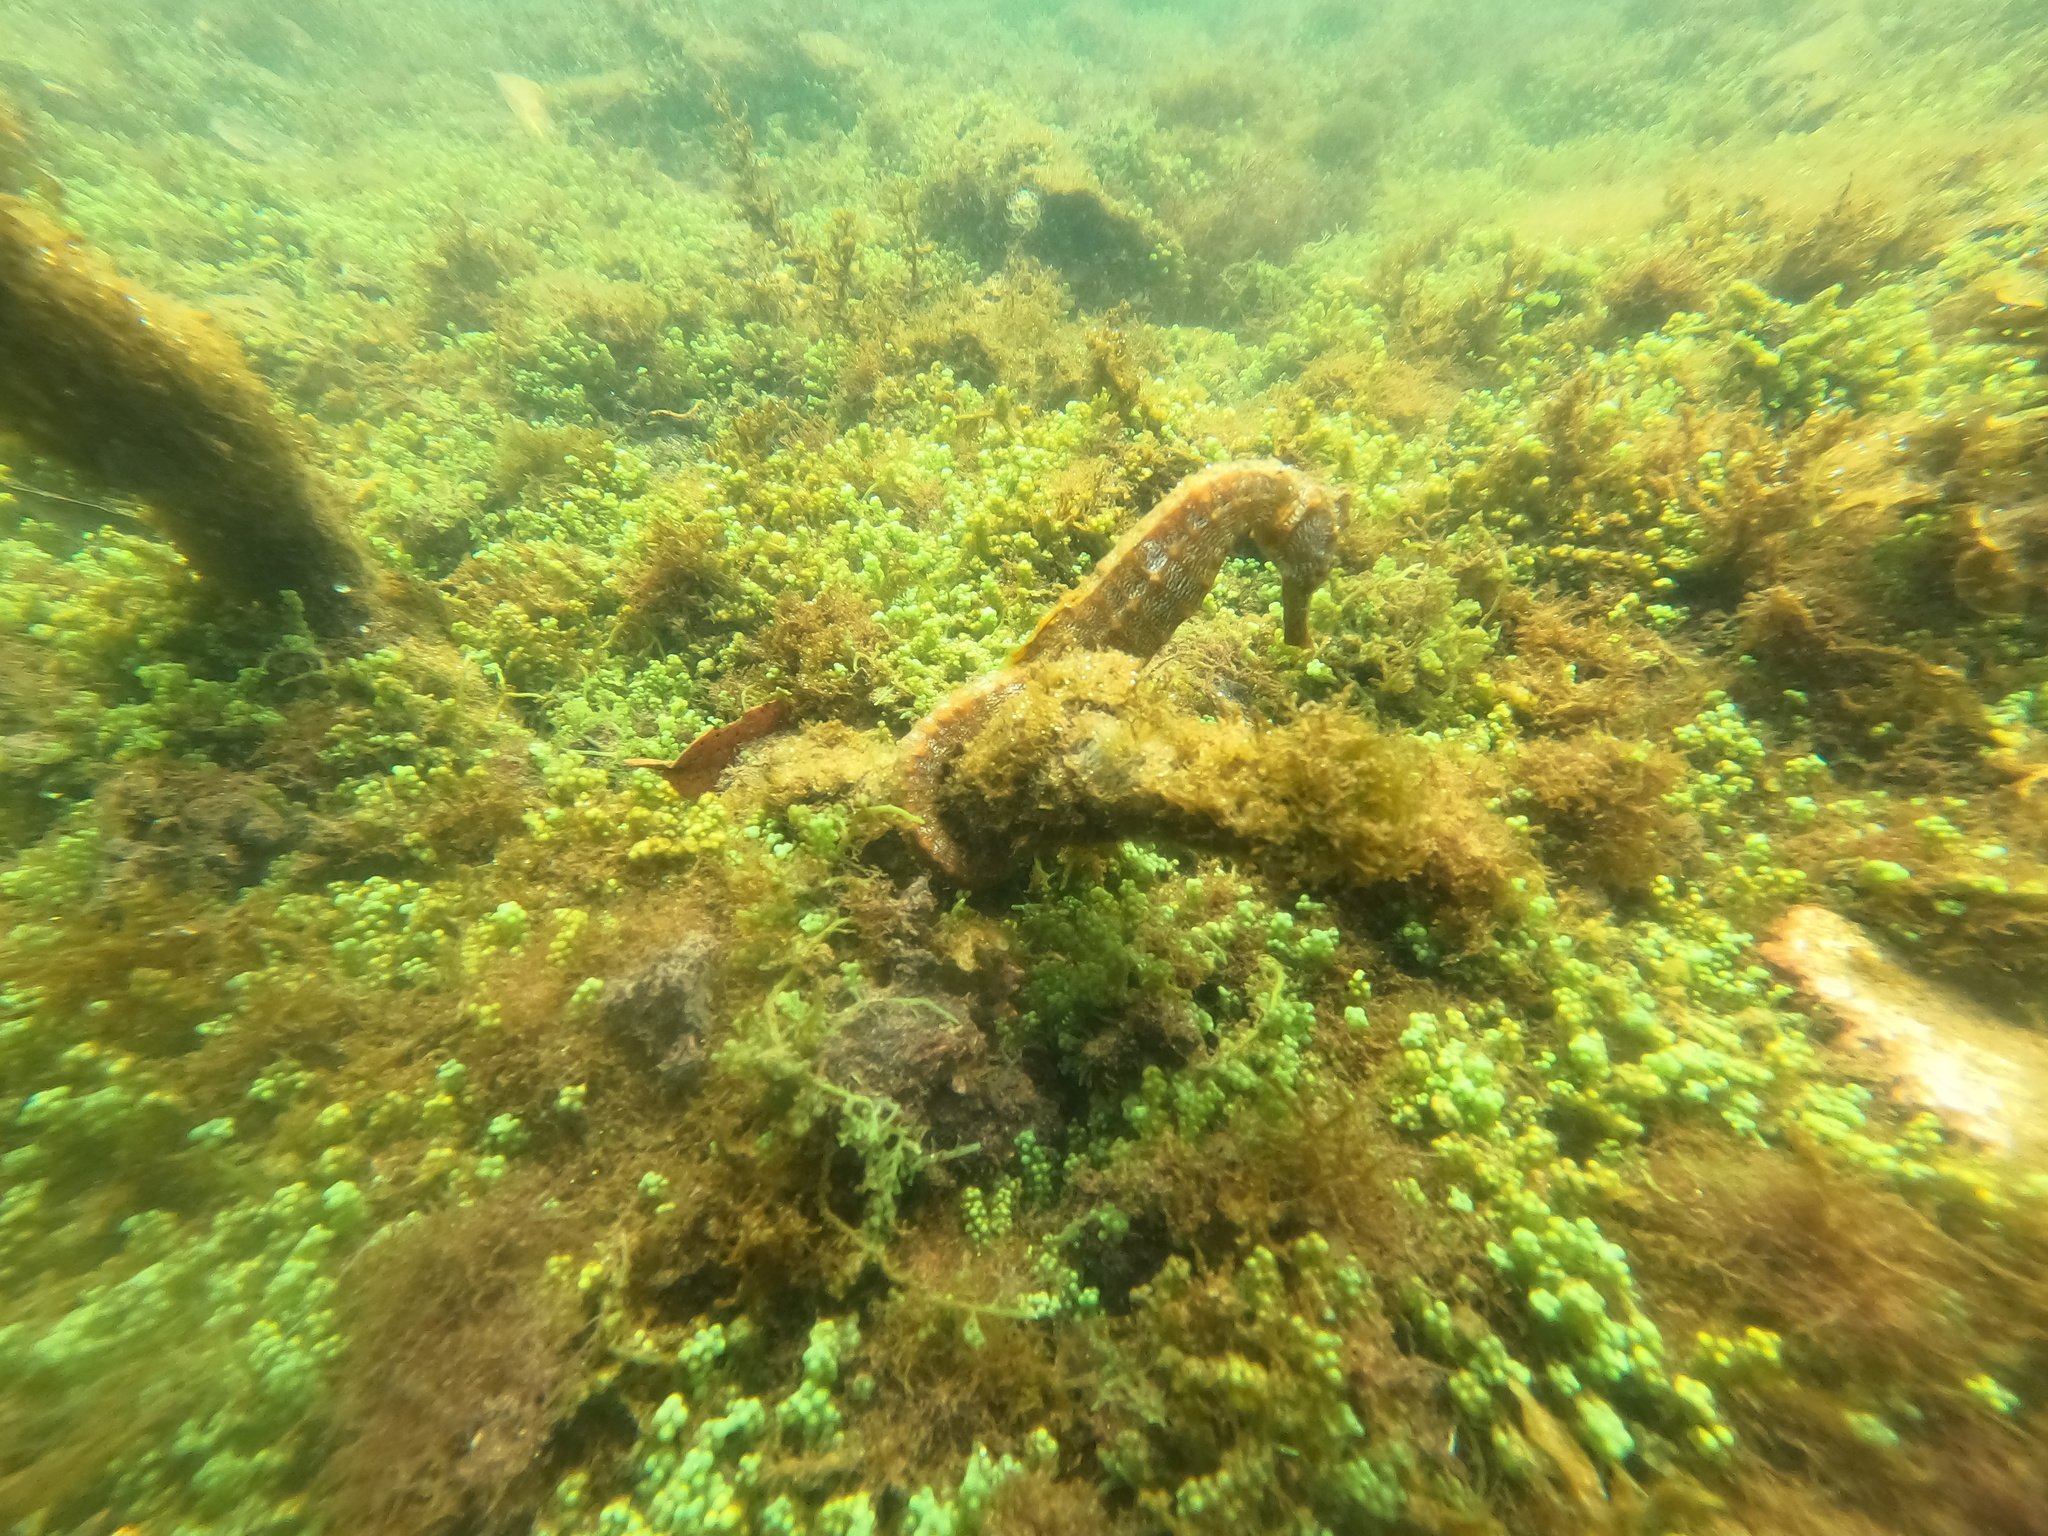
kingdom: Animalia
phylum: Chordata
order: Syngnathiformes
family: Syngnathidae
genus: Hippocampus
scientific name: Hippocampus ingens
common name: Giant seahorse
